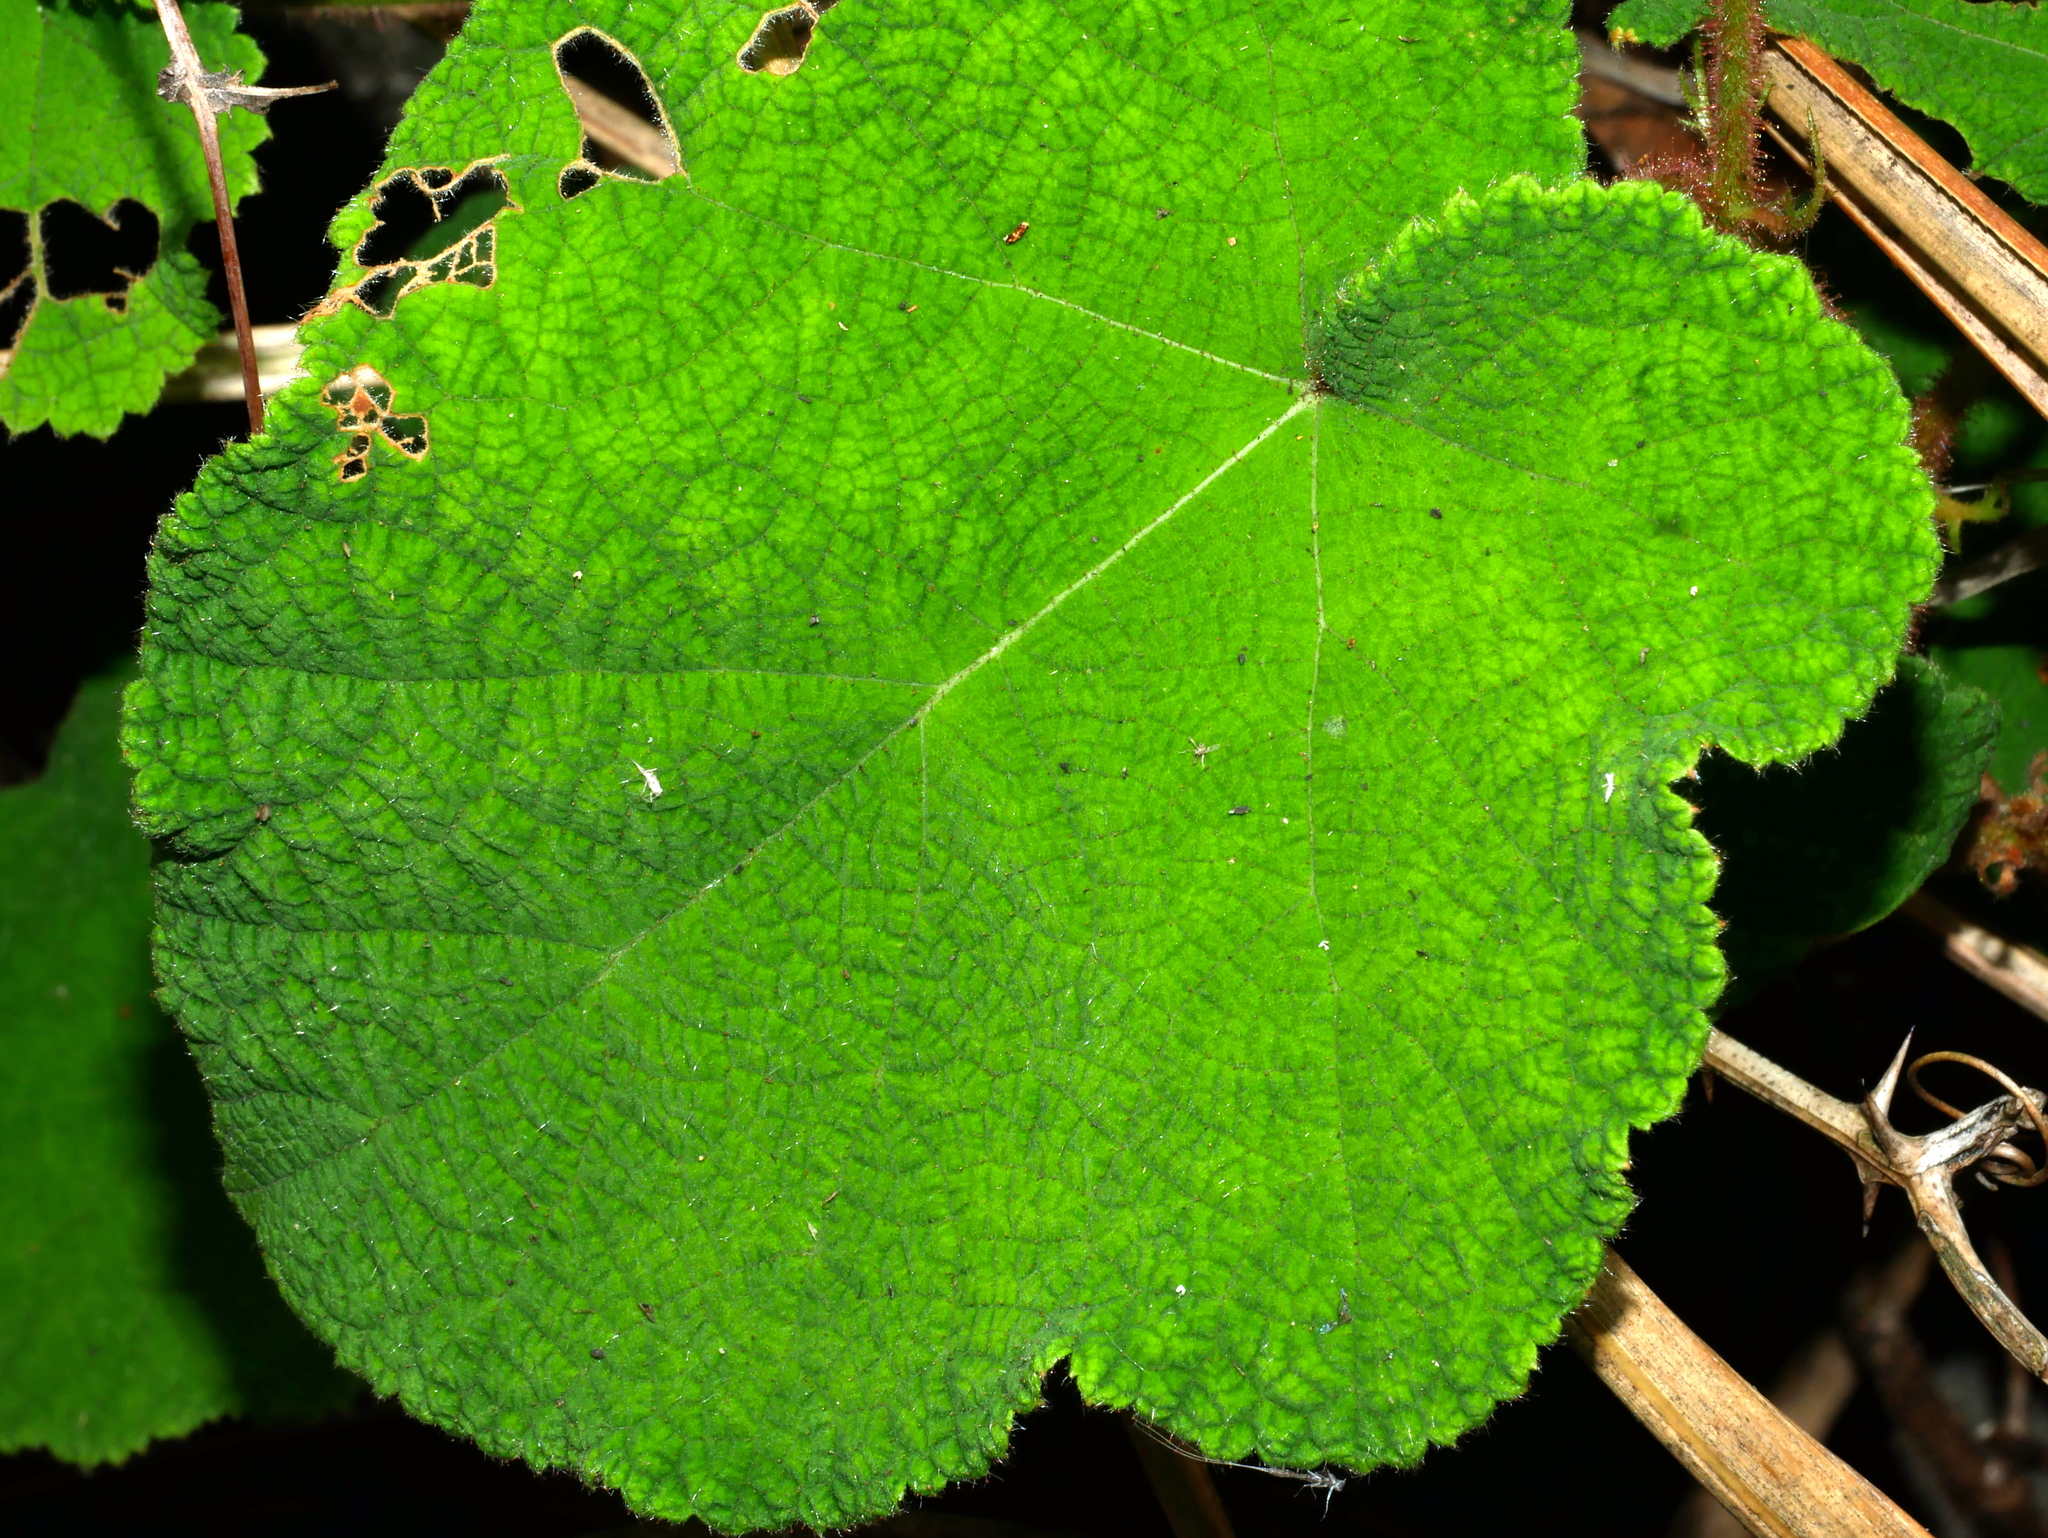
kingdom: Plantae
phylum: Tracheophyta
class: Magnoliopsida
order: Rosales
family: Rosaceae
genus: Rubus
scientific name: Rubus amphidasys
